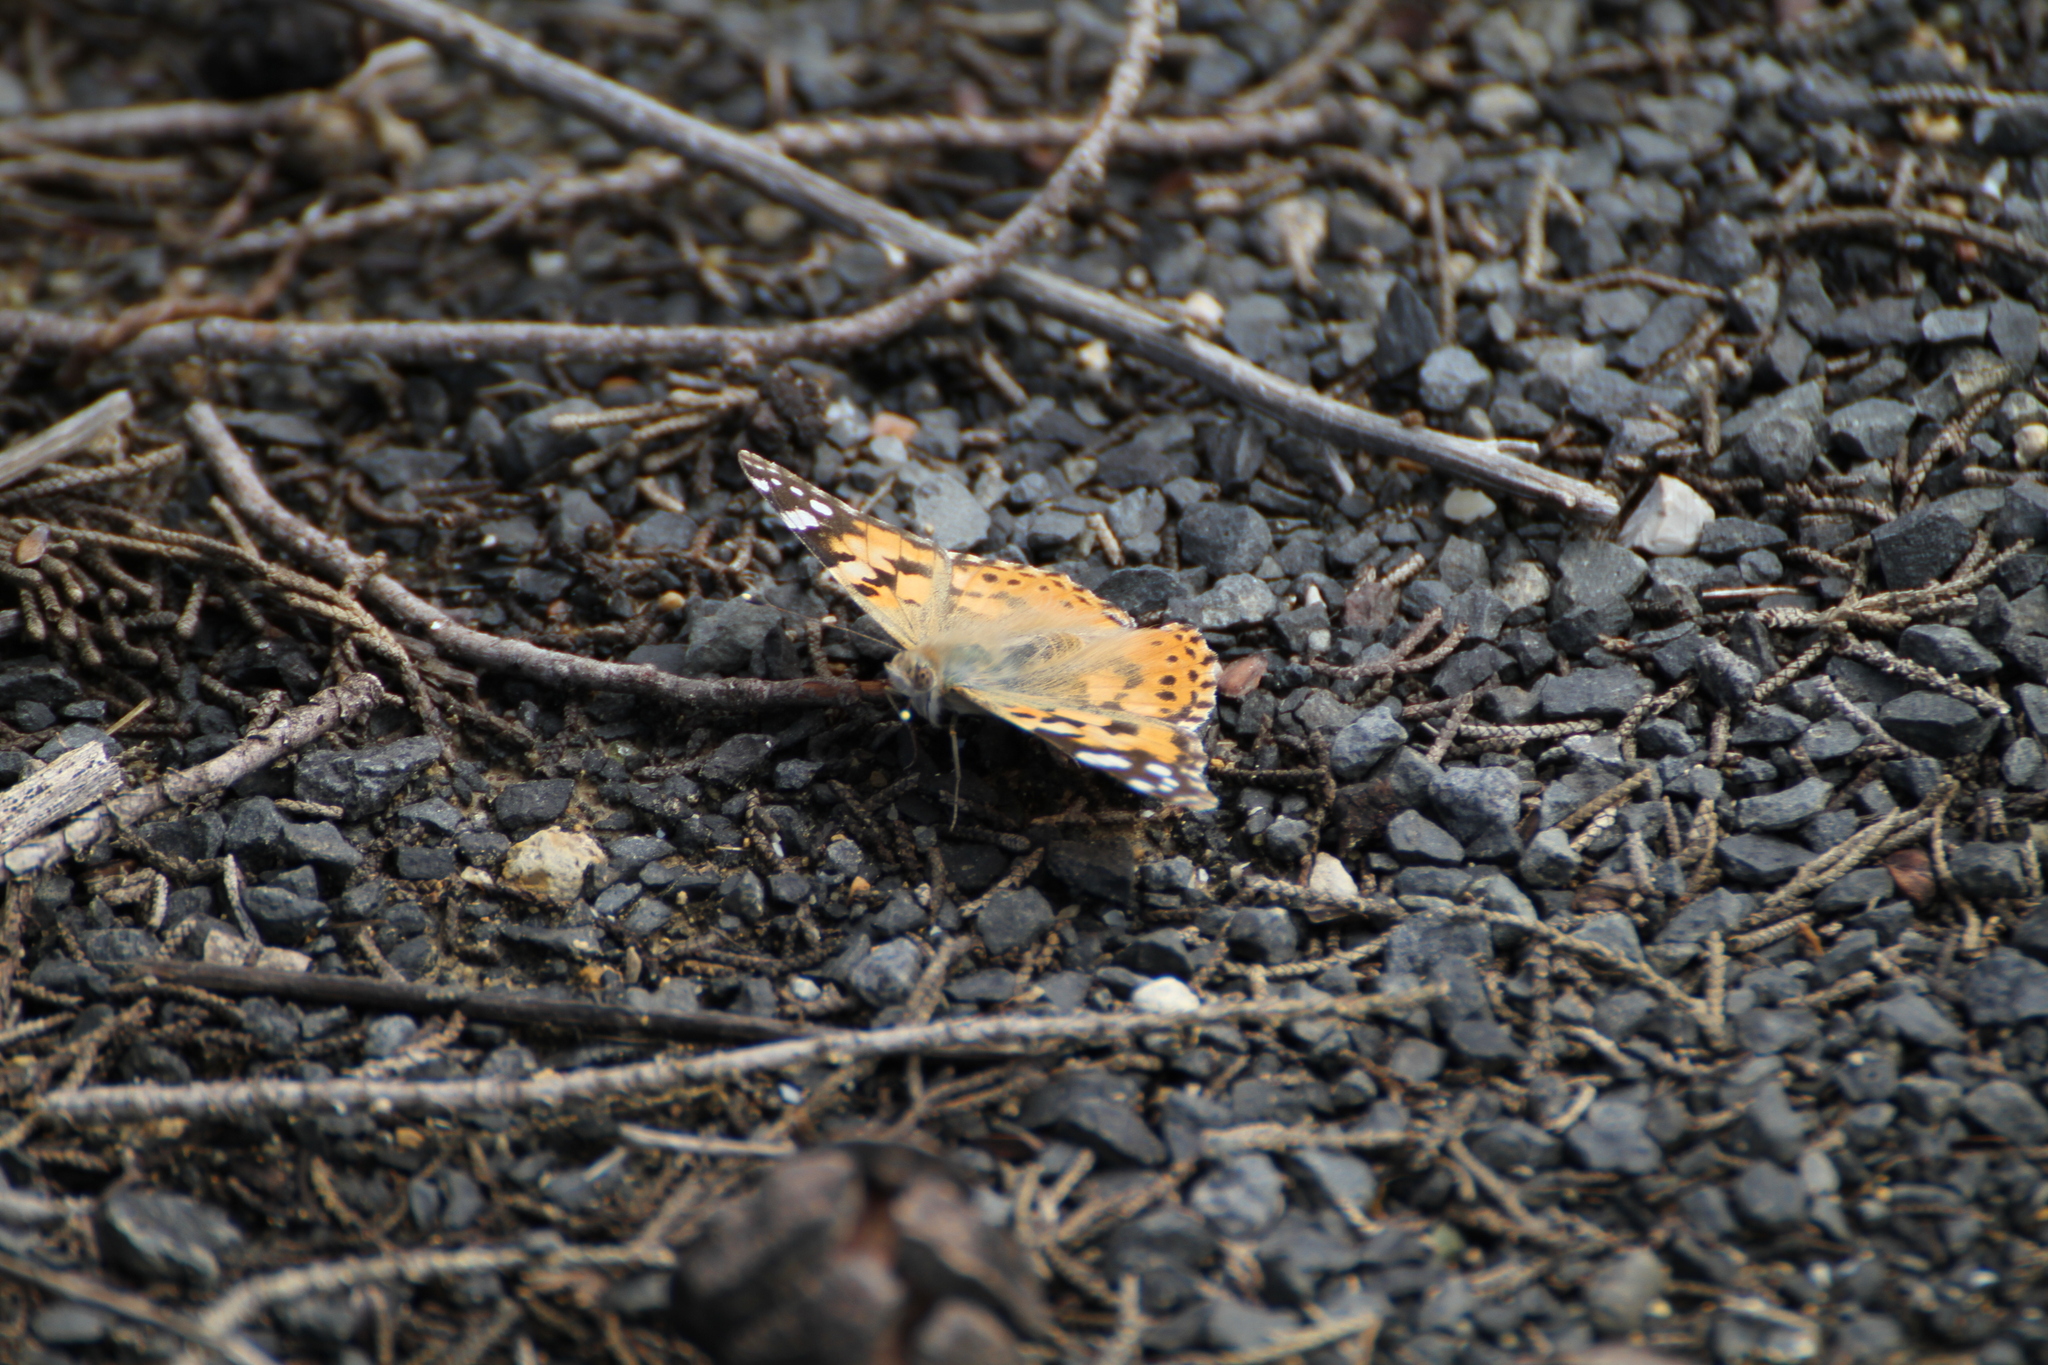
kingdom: Animalia
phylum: Arthropoda
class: Insecta
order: Lepidoptera
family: Nymphalidae
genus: Vanessa
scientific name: Vanessa cardui
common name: Painted lady
